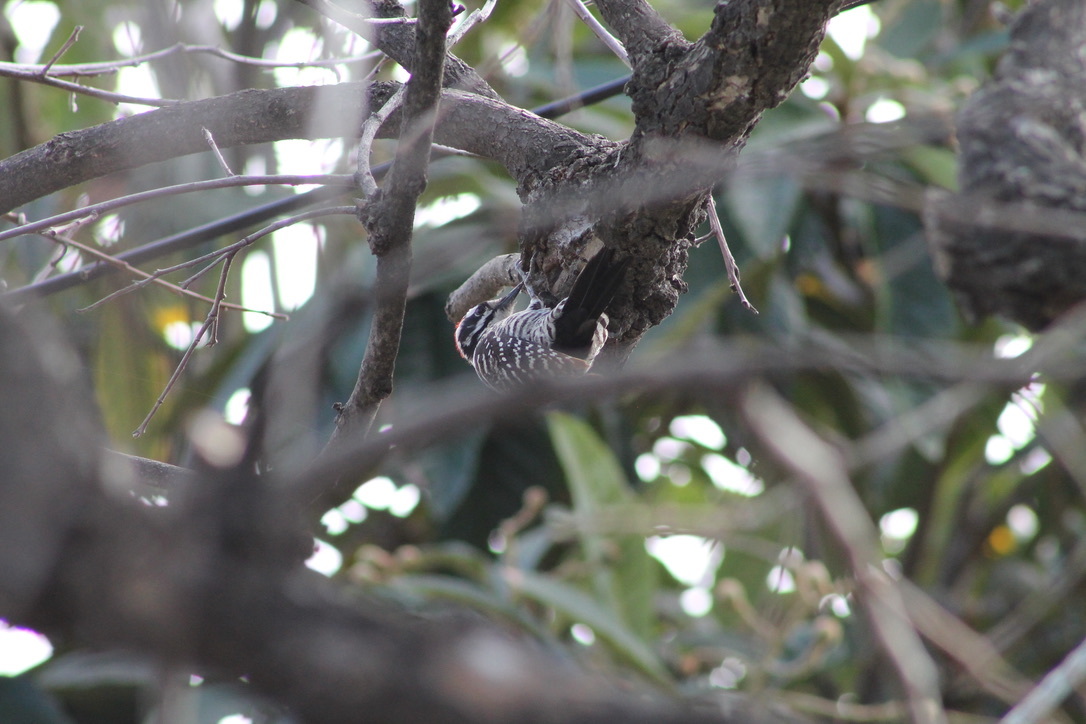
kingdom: Animalia
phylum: Chordata
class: Aves
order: Piciformes
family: Picidae
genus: Dryobates
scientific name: Dryobates nuttallii
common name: Nuttall's woodpecker
